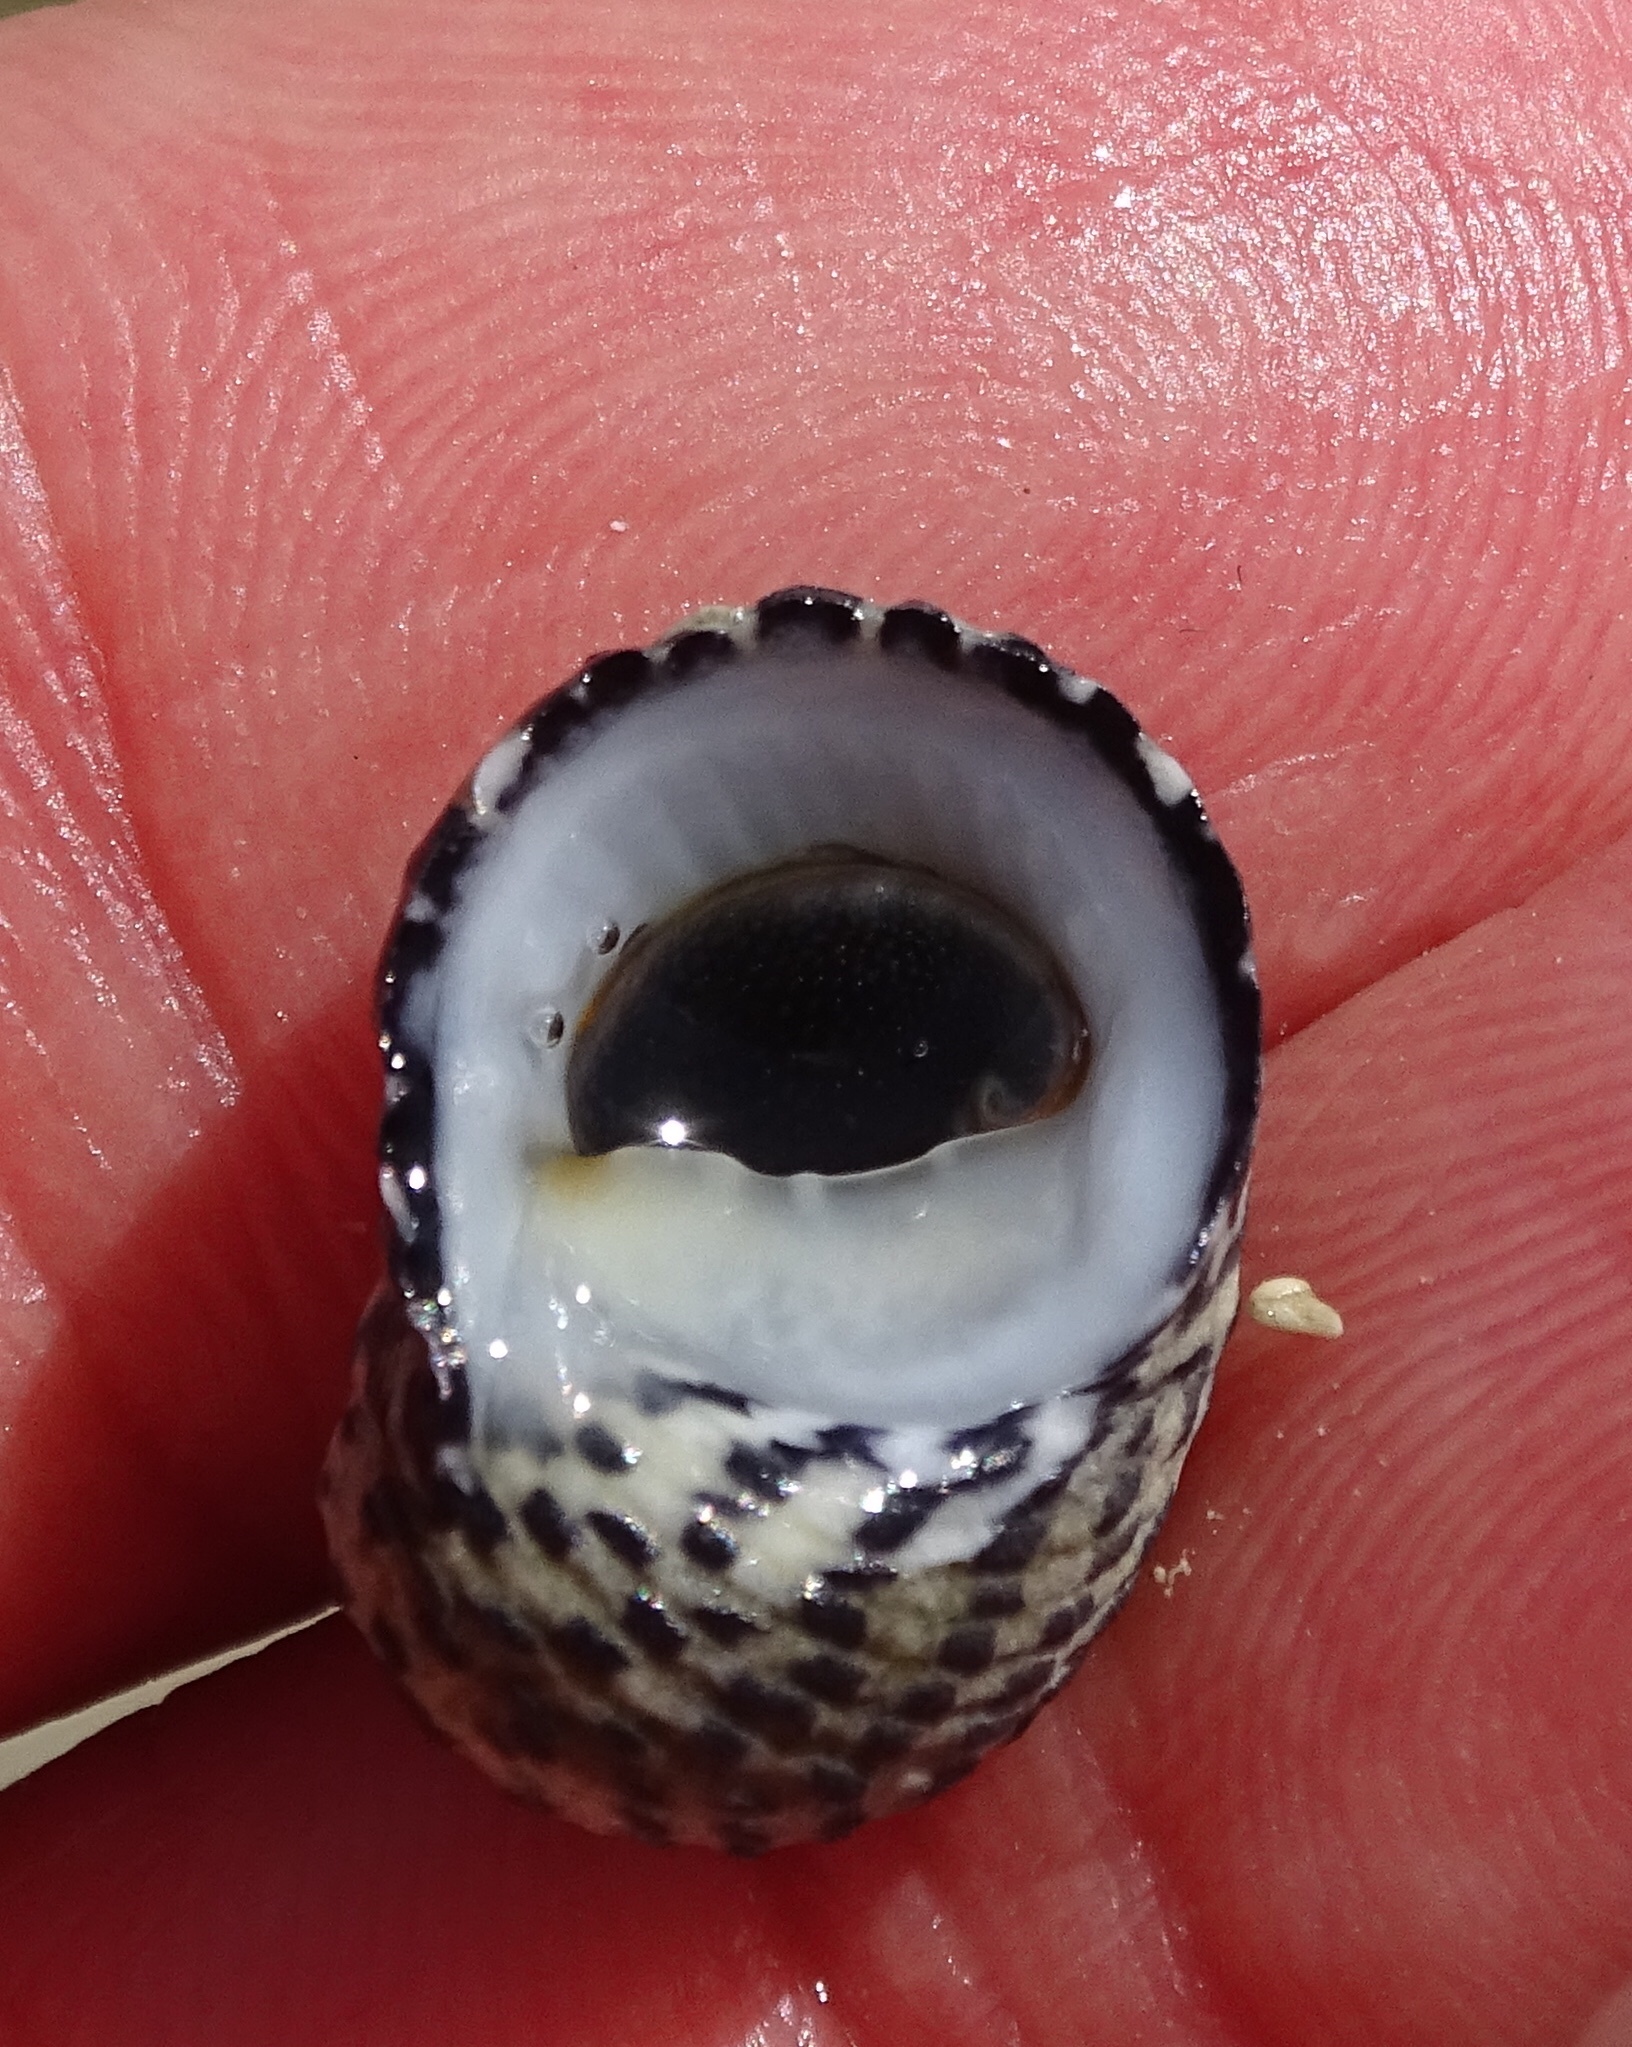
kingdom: Animalia
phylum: Mollusca
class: Gastropoda
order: Cycloneritida
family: Neritidae
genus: Nerita
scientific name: Nerita tessellata
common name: Checkered nerite
